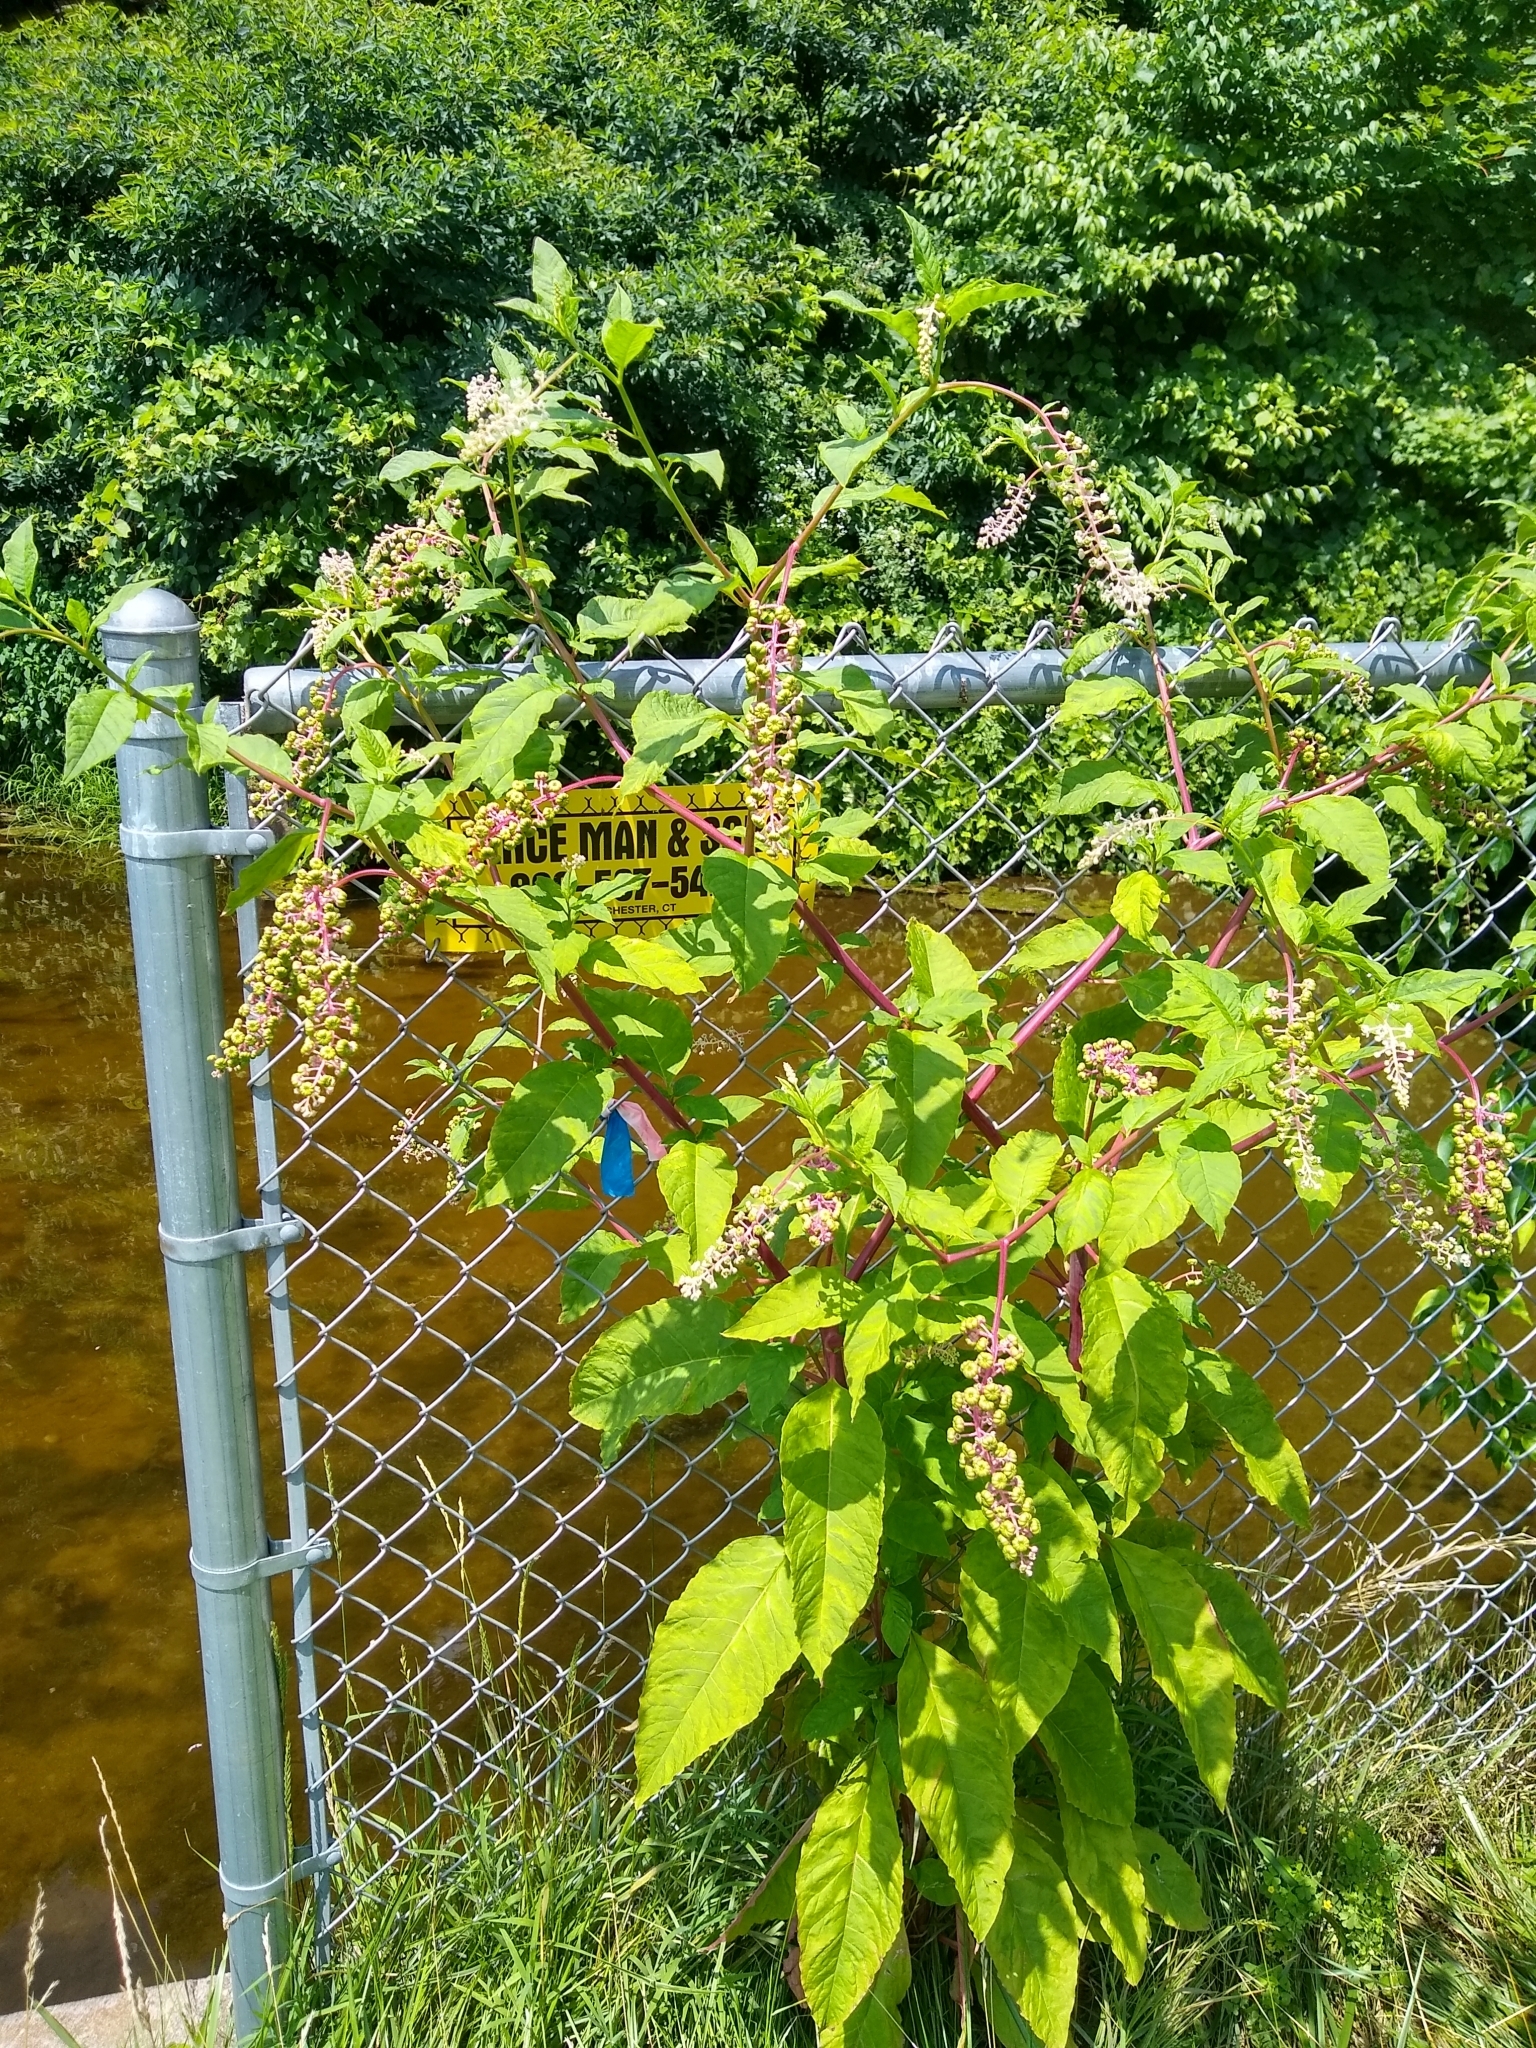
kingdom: Plantae
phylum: Tracheophyta
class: Magnoliopsida
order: Caryophyllales
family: Phytolaccaceae
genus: Phytolacca
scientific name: Phytolacca americana
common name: American pokeweed
